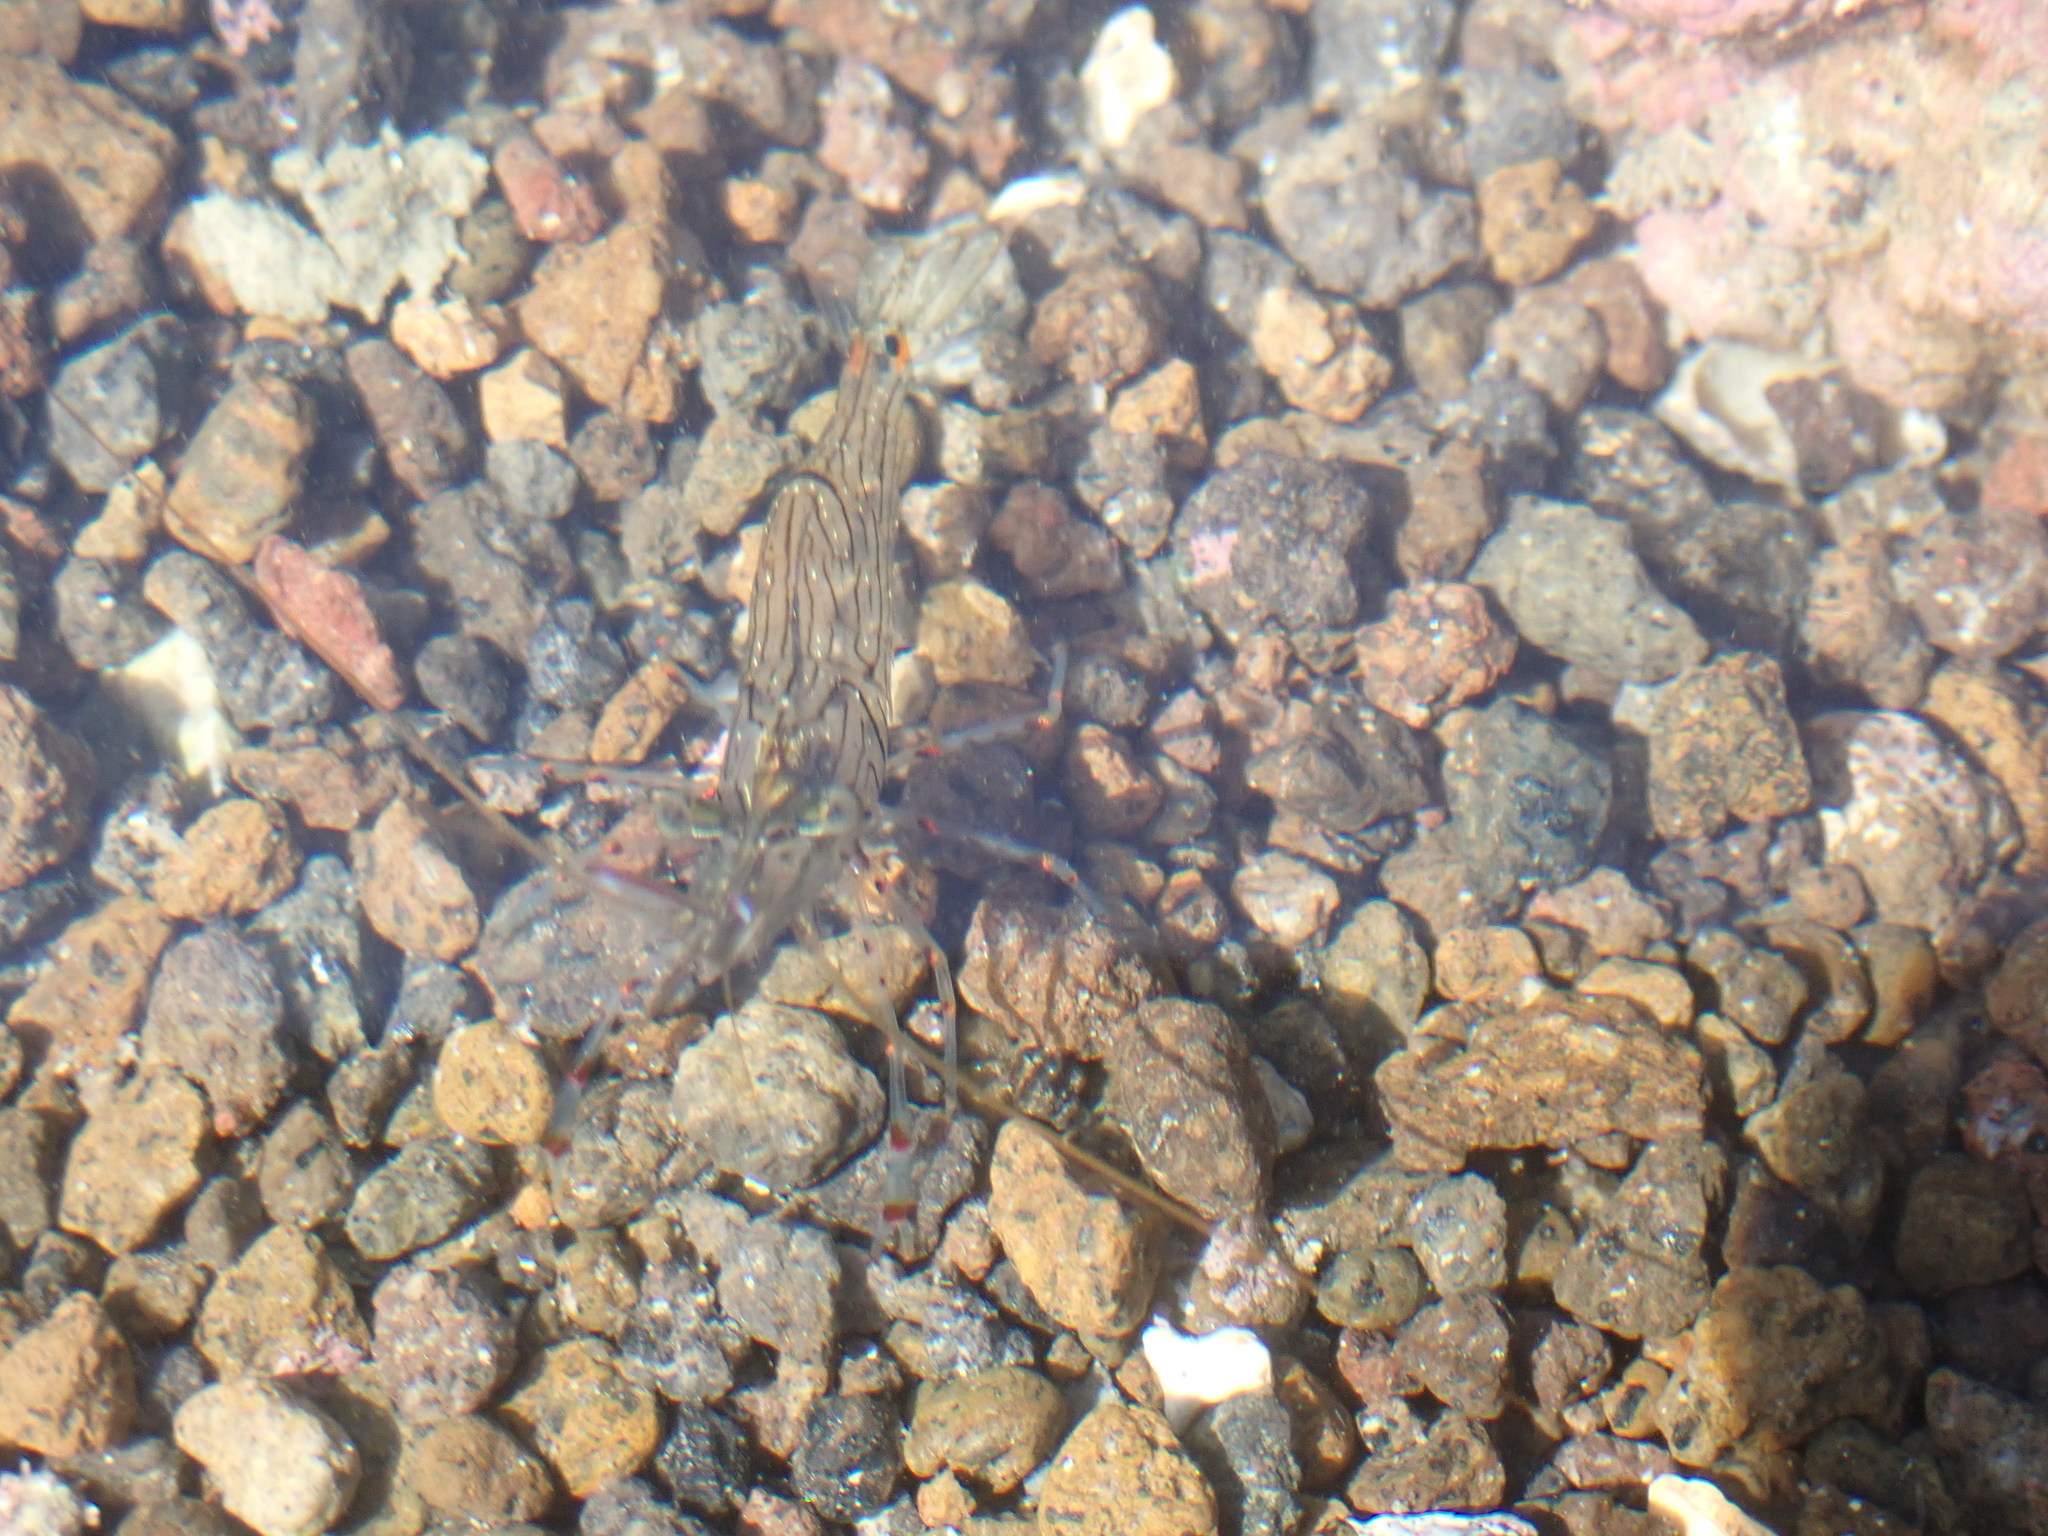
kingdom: Animalia
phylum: Arthropoda
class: Malacostraca
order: Decapoda
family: Palaemonidae
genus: Palaemon
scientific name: Palaemon affinis
